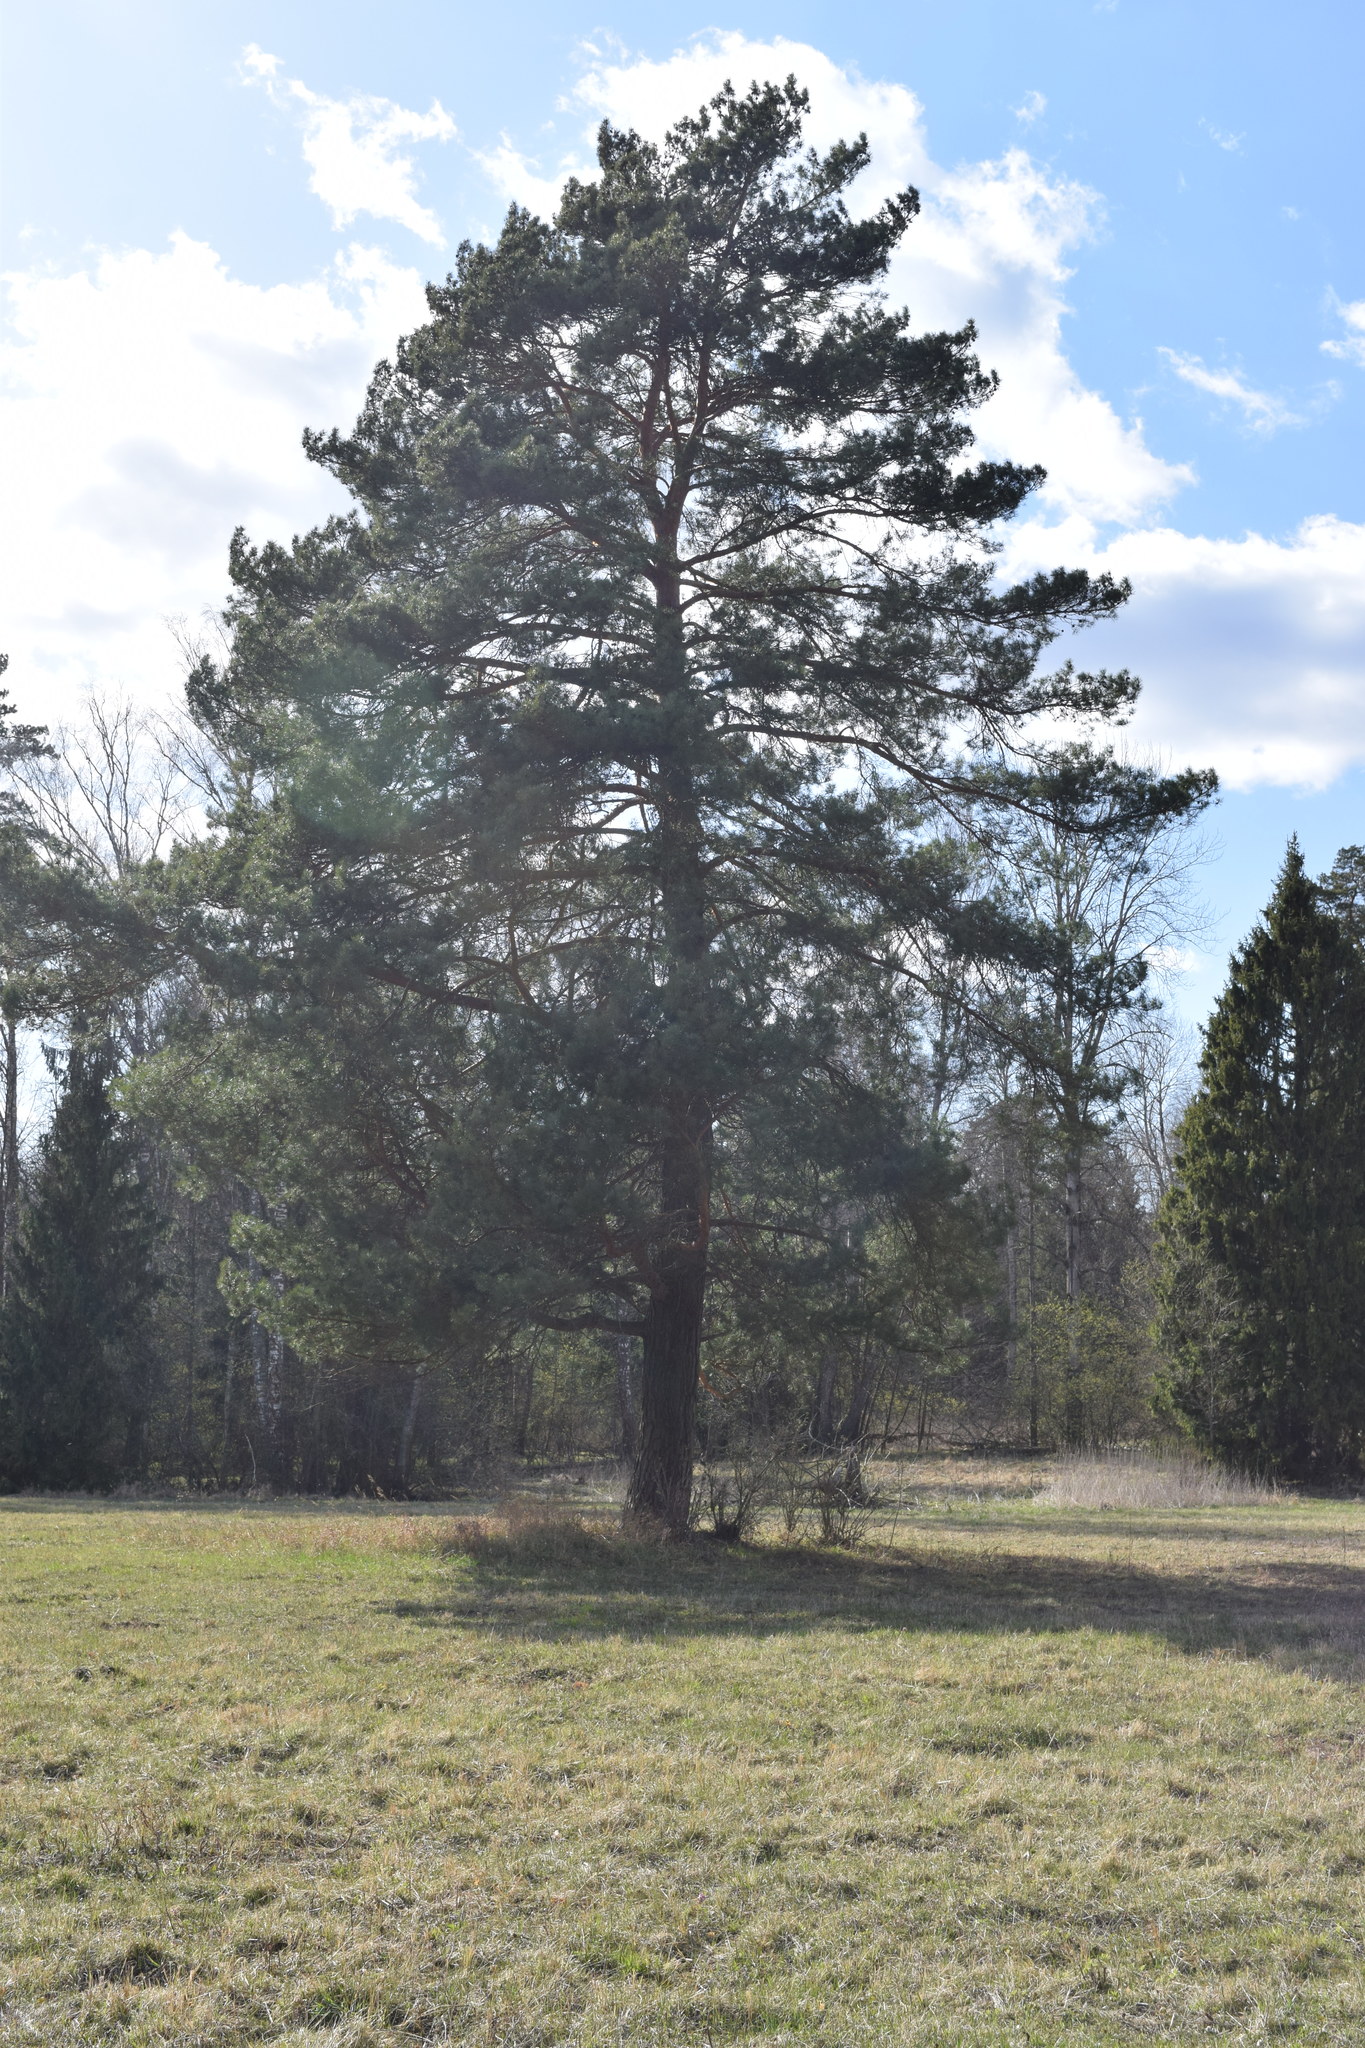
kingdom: Plantae
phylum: Tracheophyta
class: Pinopsida
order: Pinales
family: Pinaceae
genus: Pinus
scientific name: Pinus sylvestris
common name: Scots pine
